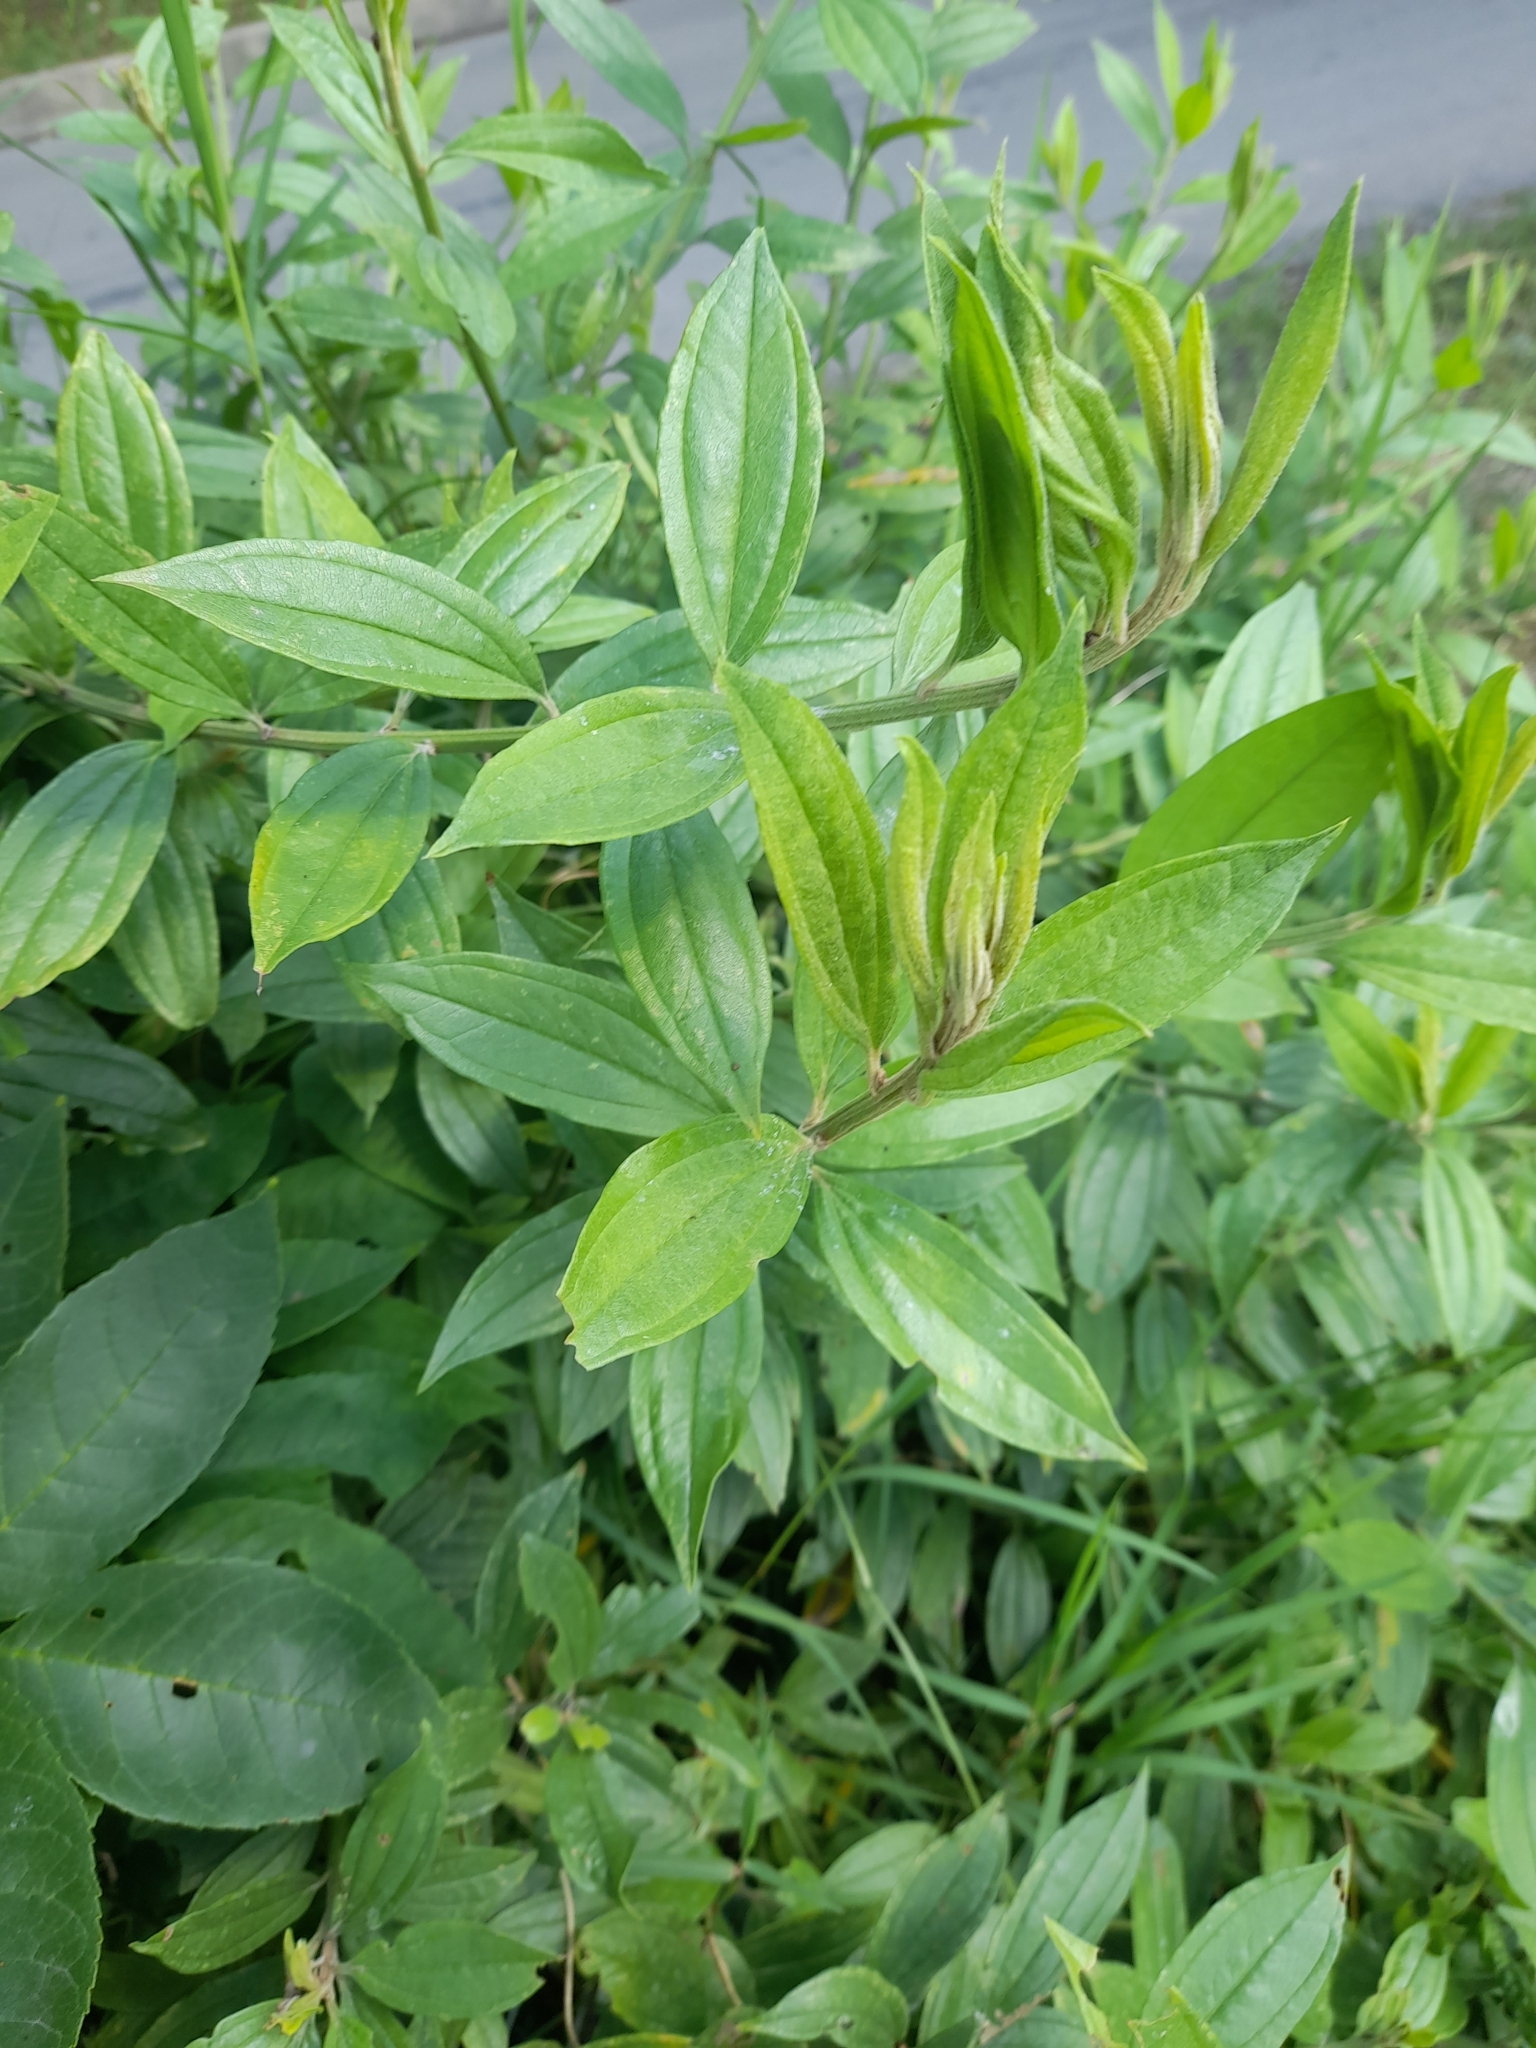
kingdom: Plantae
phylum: Tracheophyta
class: Magnoliopsida
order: Asterales
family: Asteraceae
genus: Baccharis
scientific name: Baccharis trinervis
